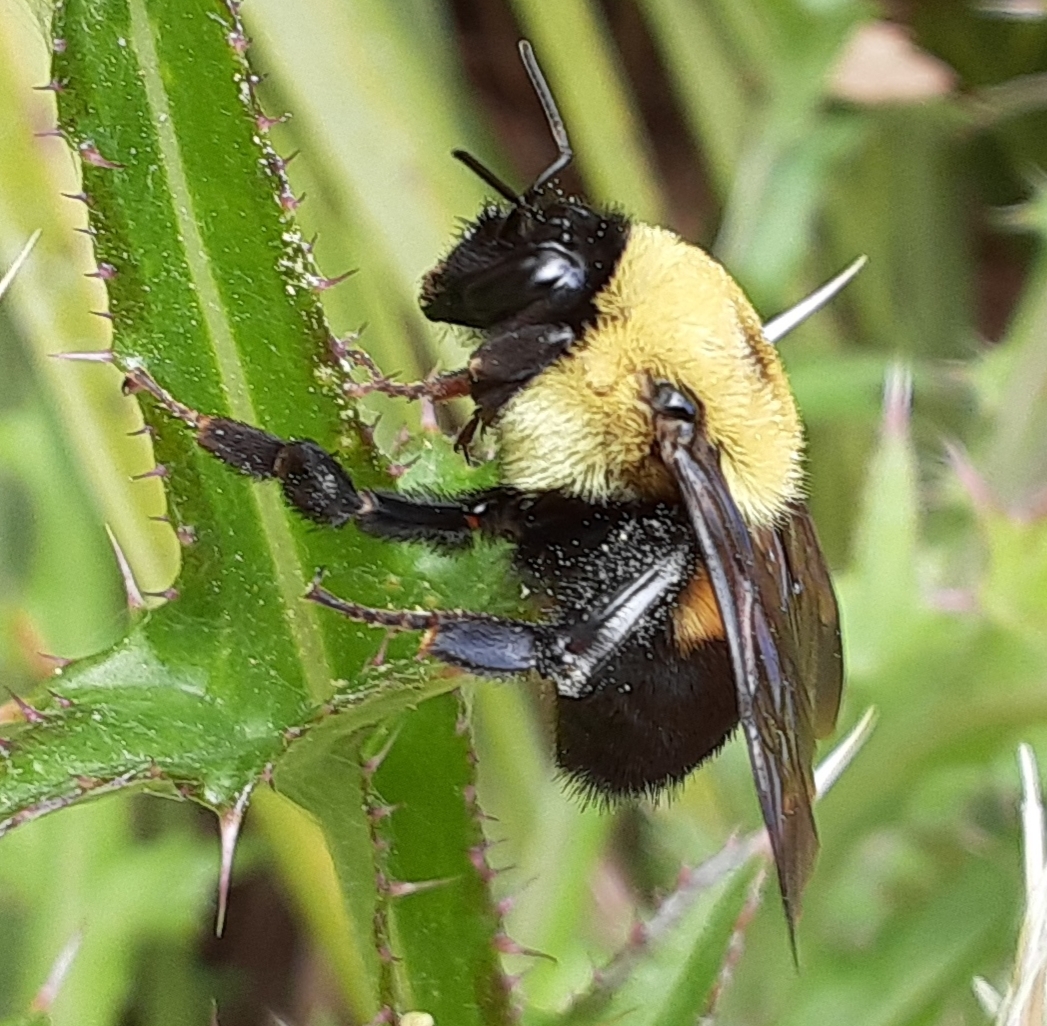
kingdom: Animalia
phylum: Arthropoda
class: Insecta
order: Hymenoptera
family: Apidae
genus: Bombus
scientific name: Bombus griseocollis
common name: Brown-belted bumble bee
